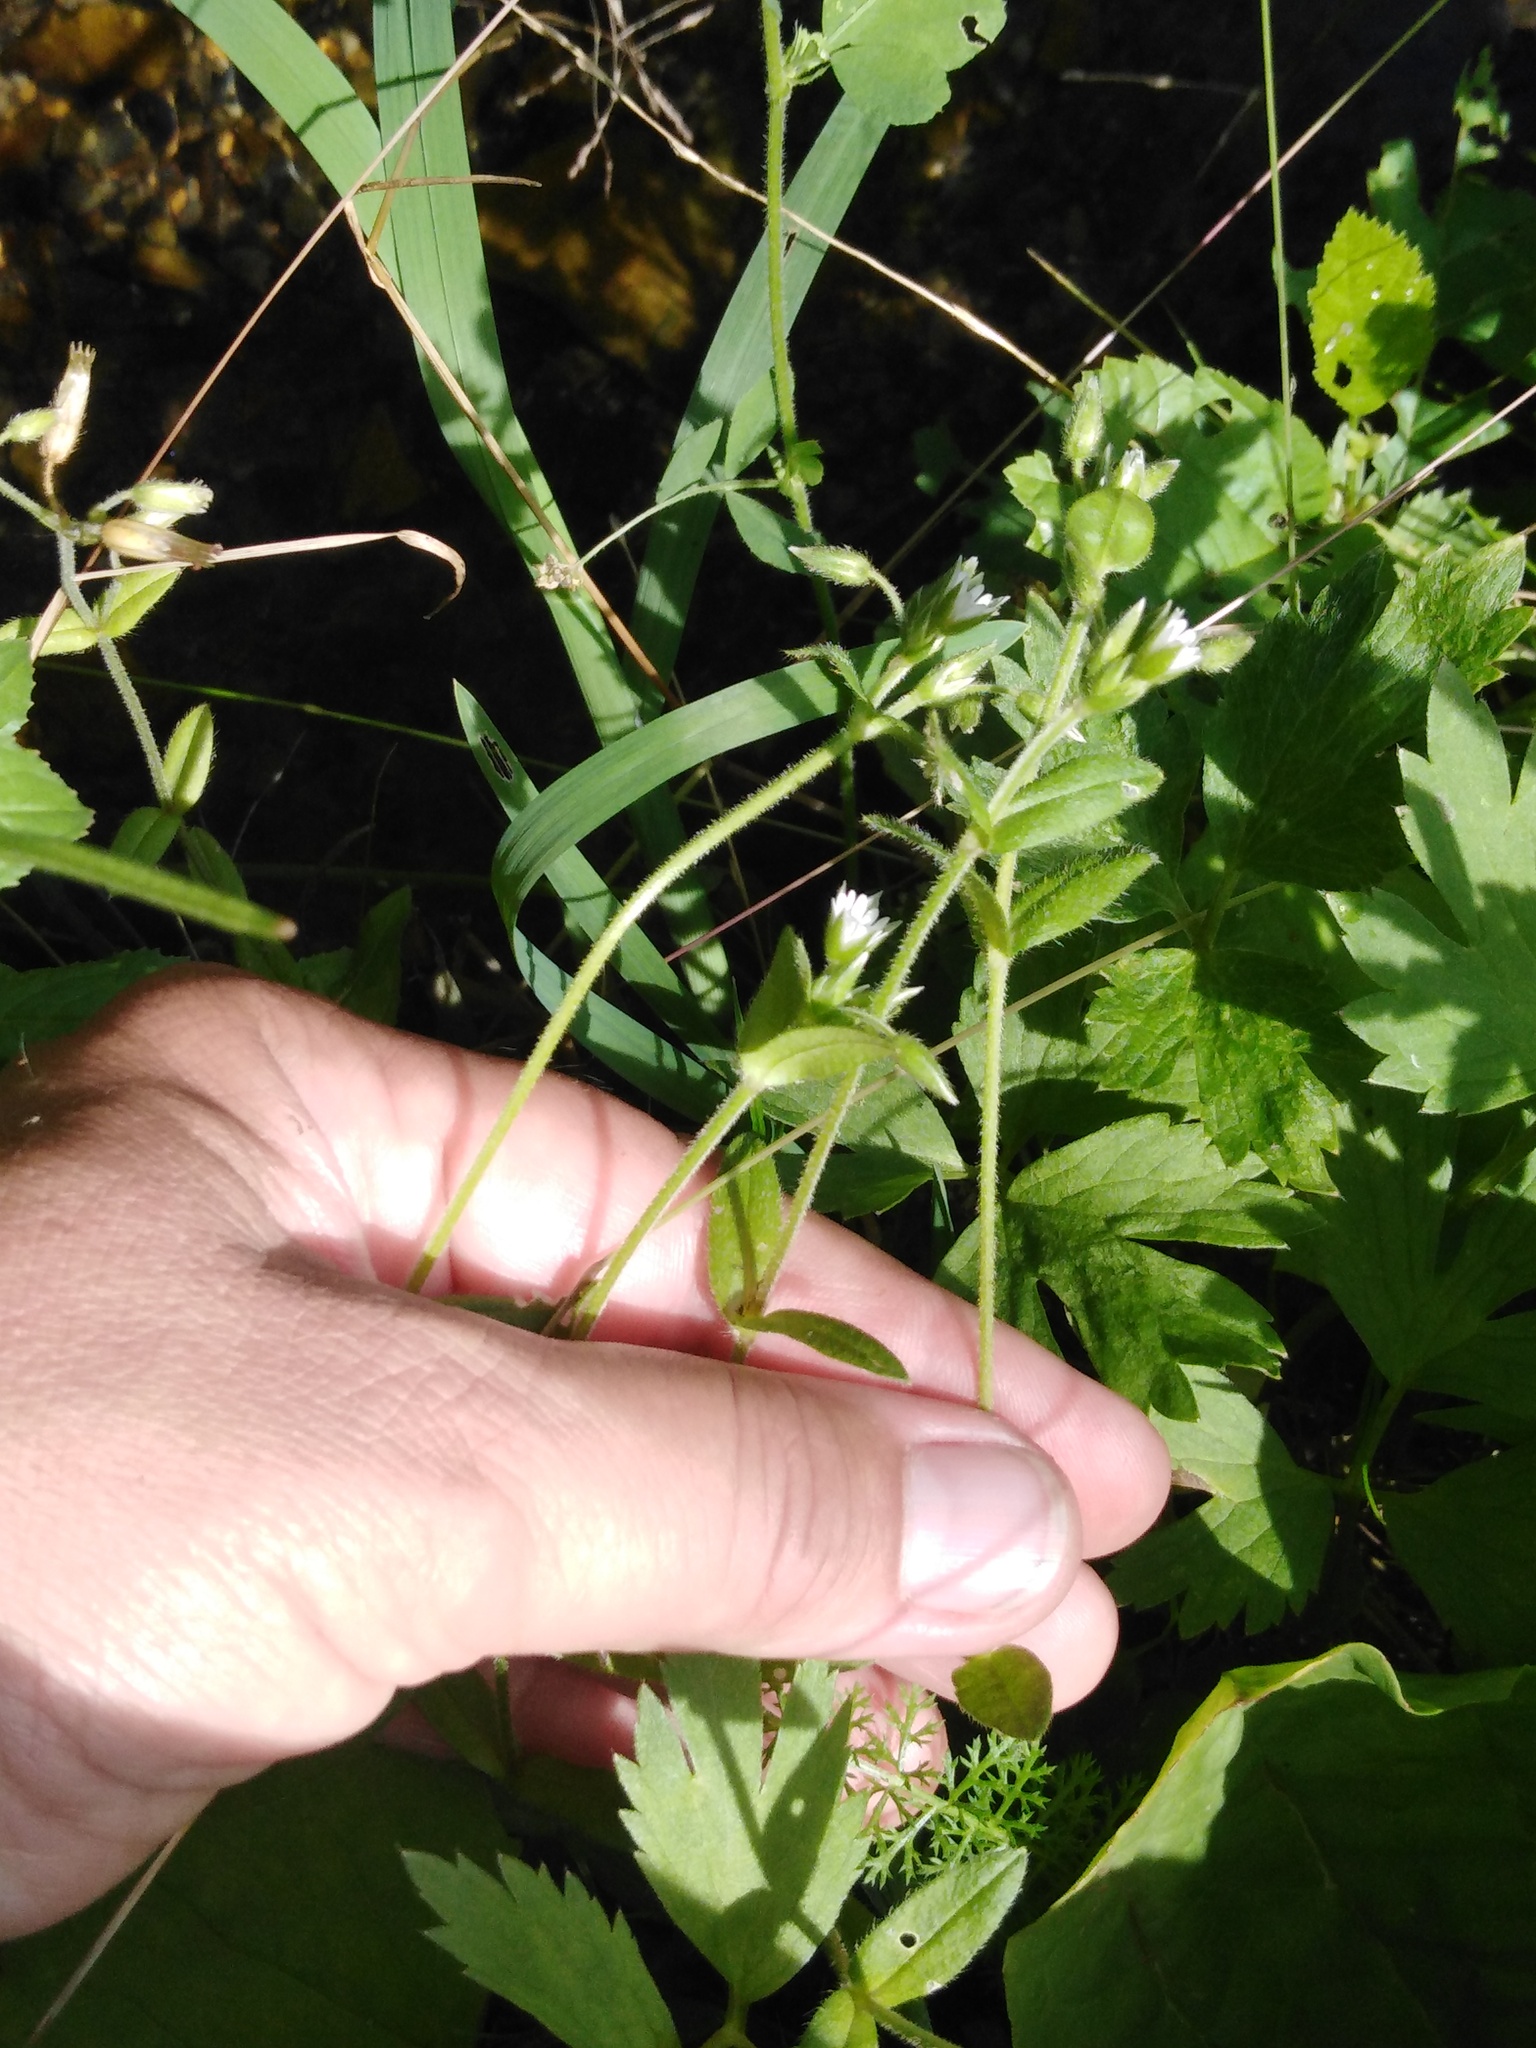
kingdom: Plantae
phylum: Tracheophyta
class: Magnoliopsida
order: Caryophyllales
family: Caryophyllaceae
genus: Cerastium
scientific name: Cerastium holosteoides
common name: Big chickweed
